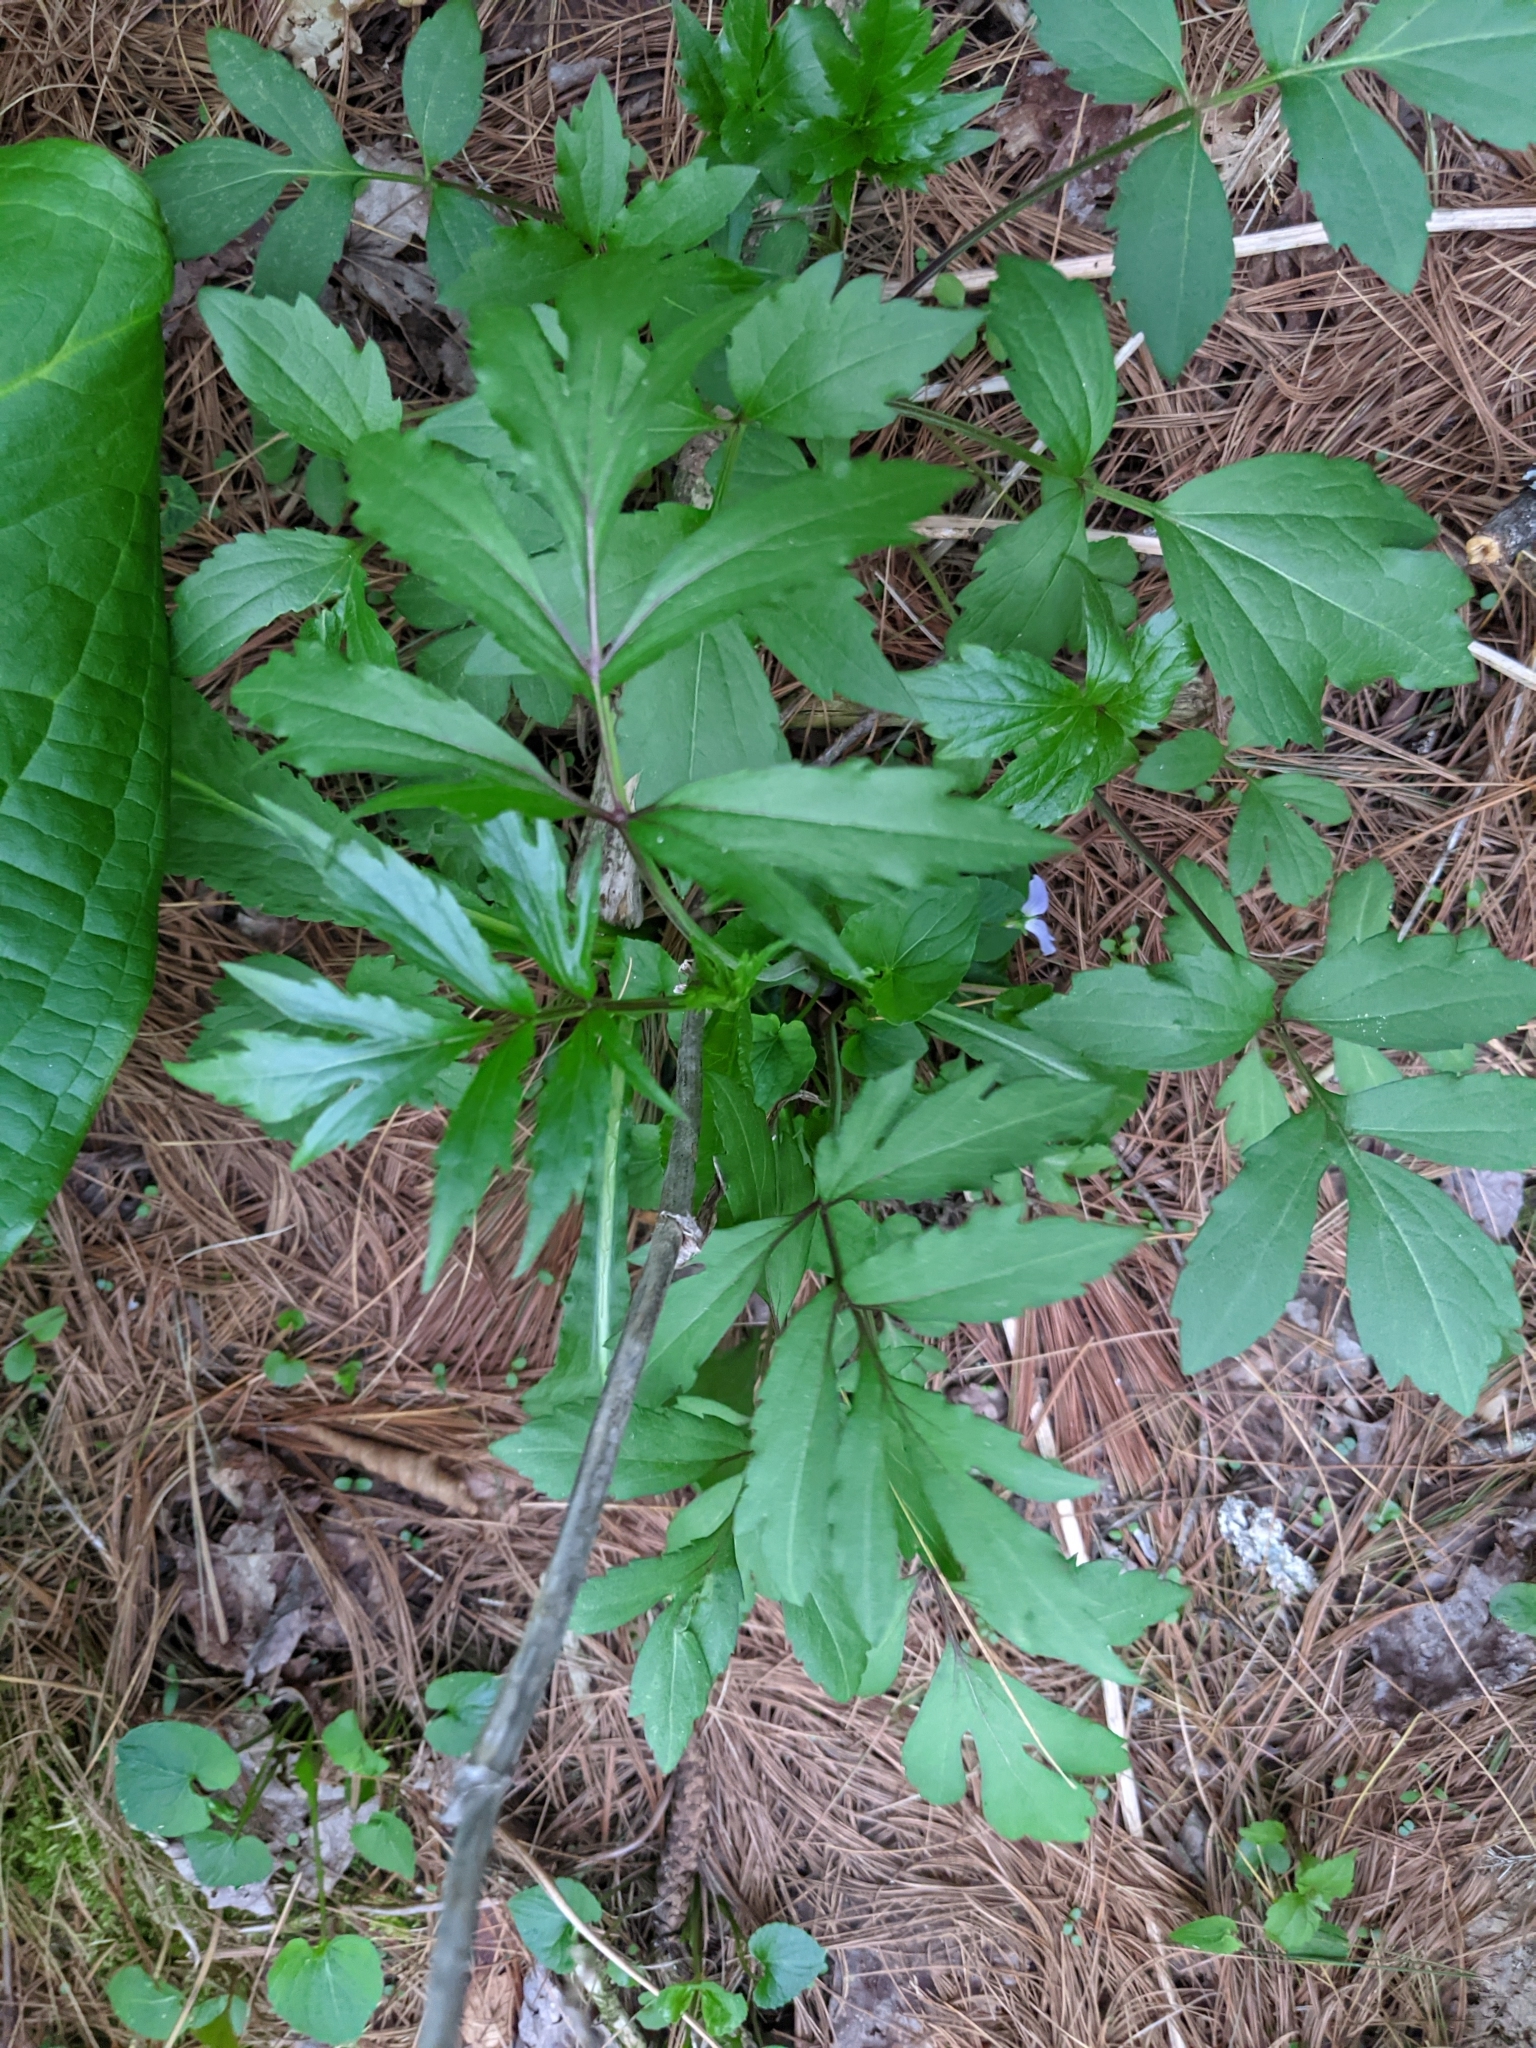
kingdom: Plantae
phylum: Tracheophyta
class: Magnoliopsida
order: Asterales
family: Asteraceae
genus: Rudbeckia
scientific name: Rudbeckia laciniata
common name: Coneflower
